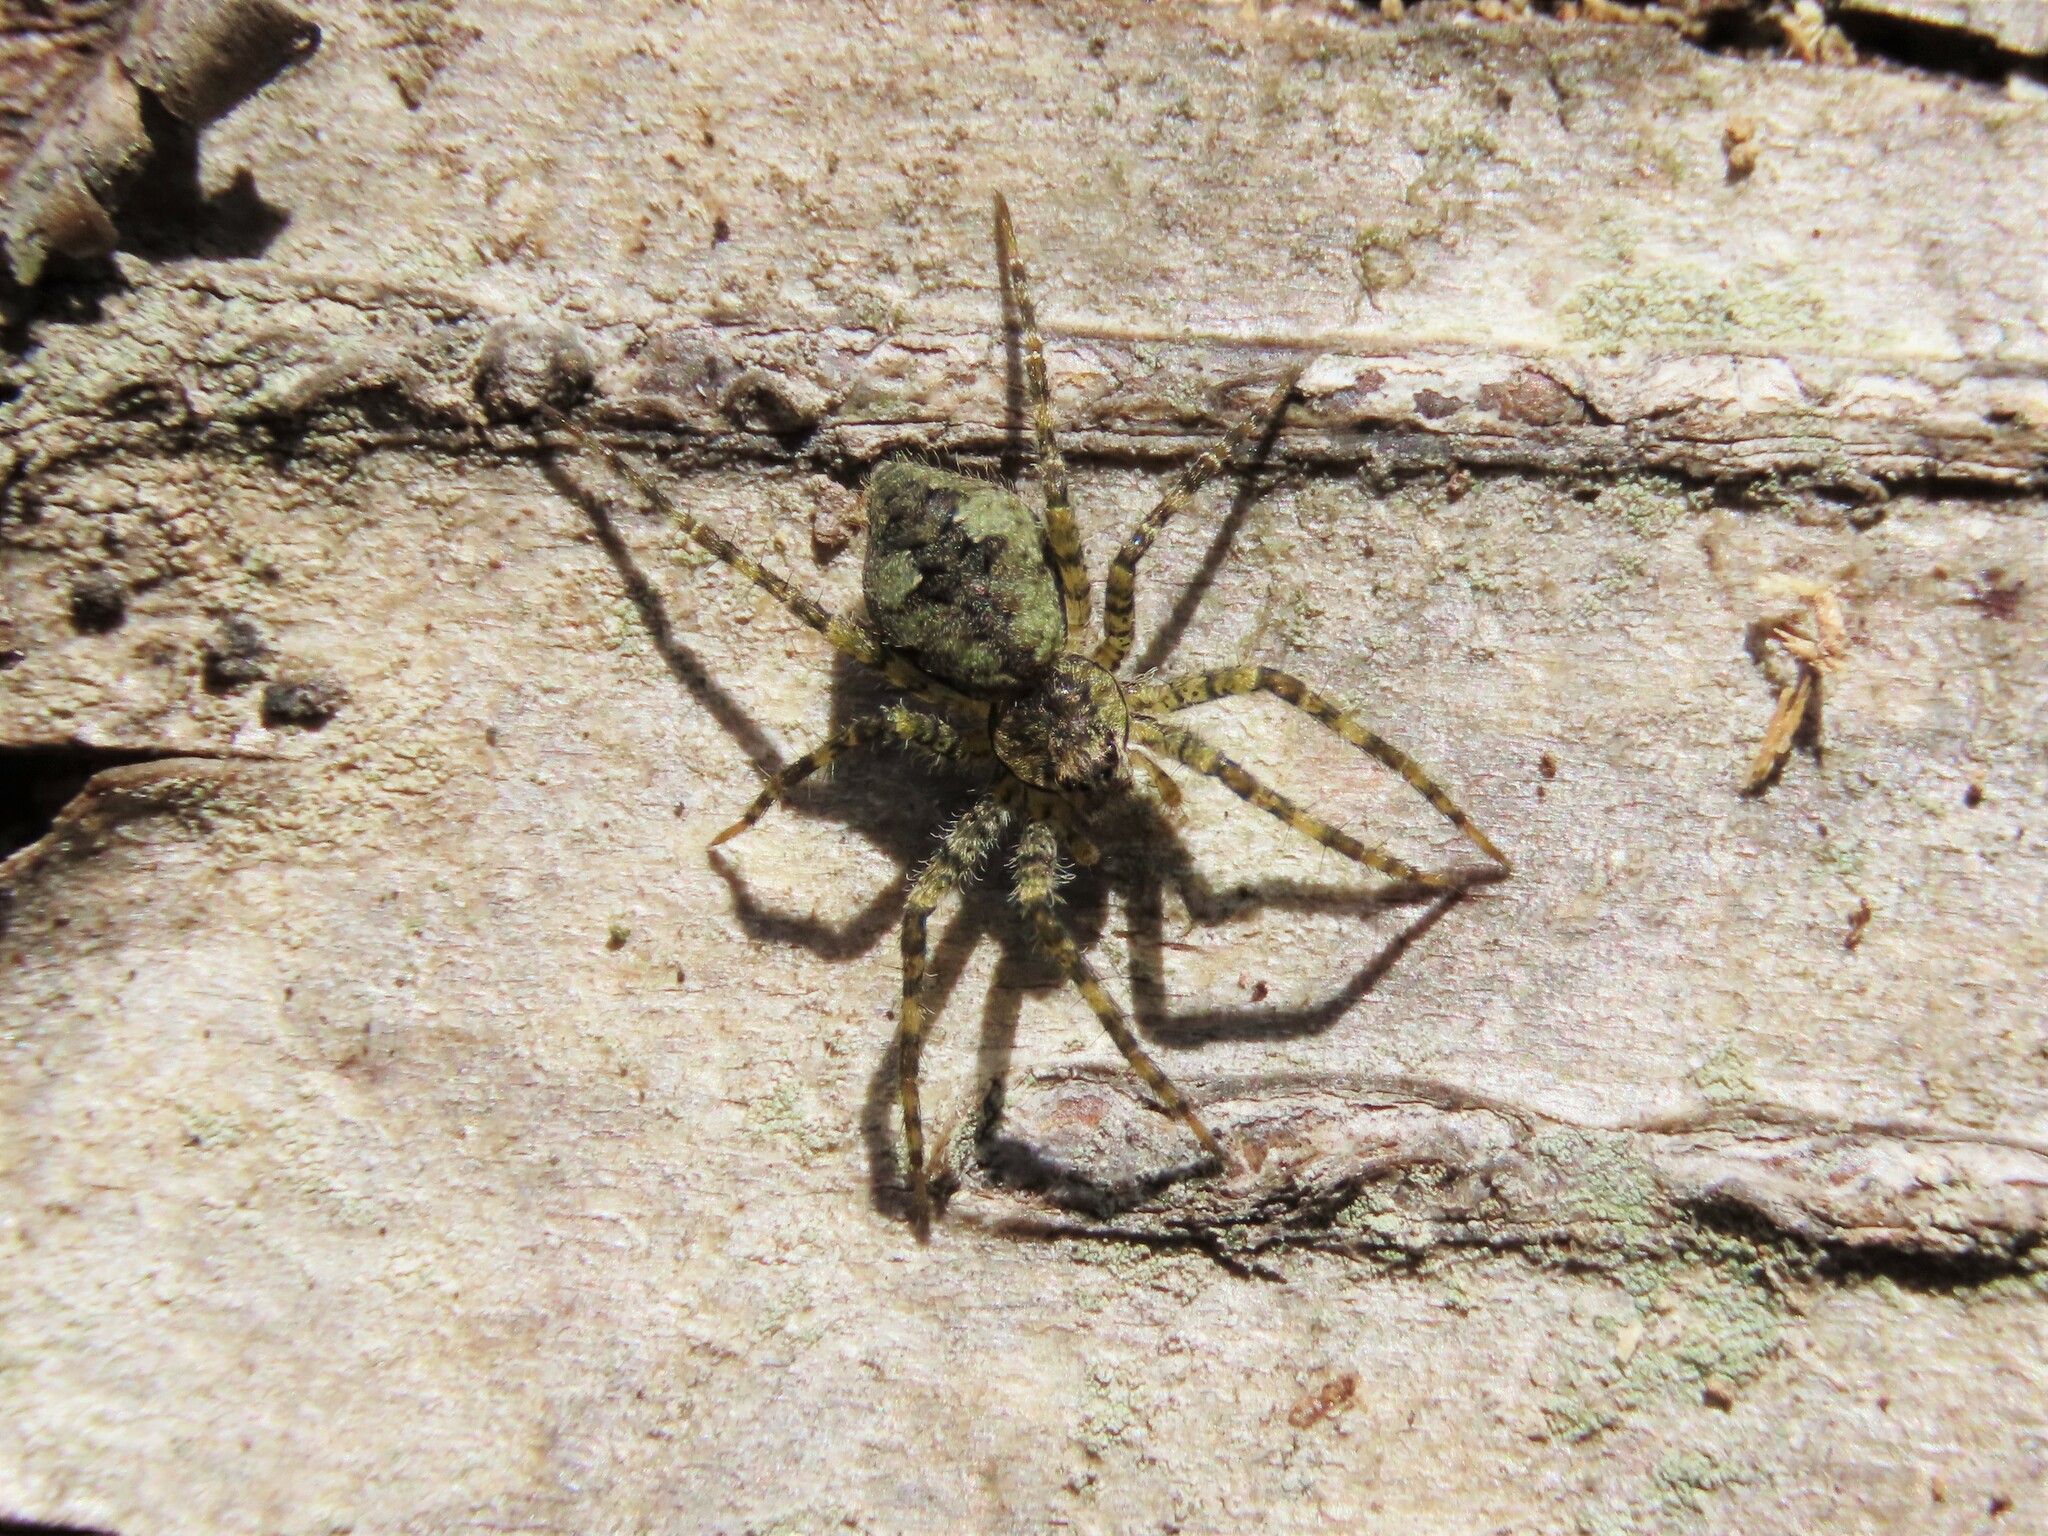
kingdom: Animalia
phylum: Arthropoda
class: Arachnida
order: Araneae
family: Pisauridae
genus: Dolomedes
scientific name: Dolomedes albineus
